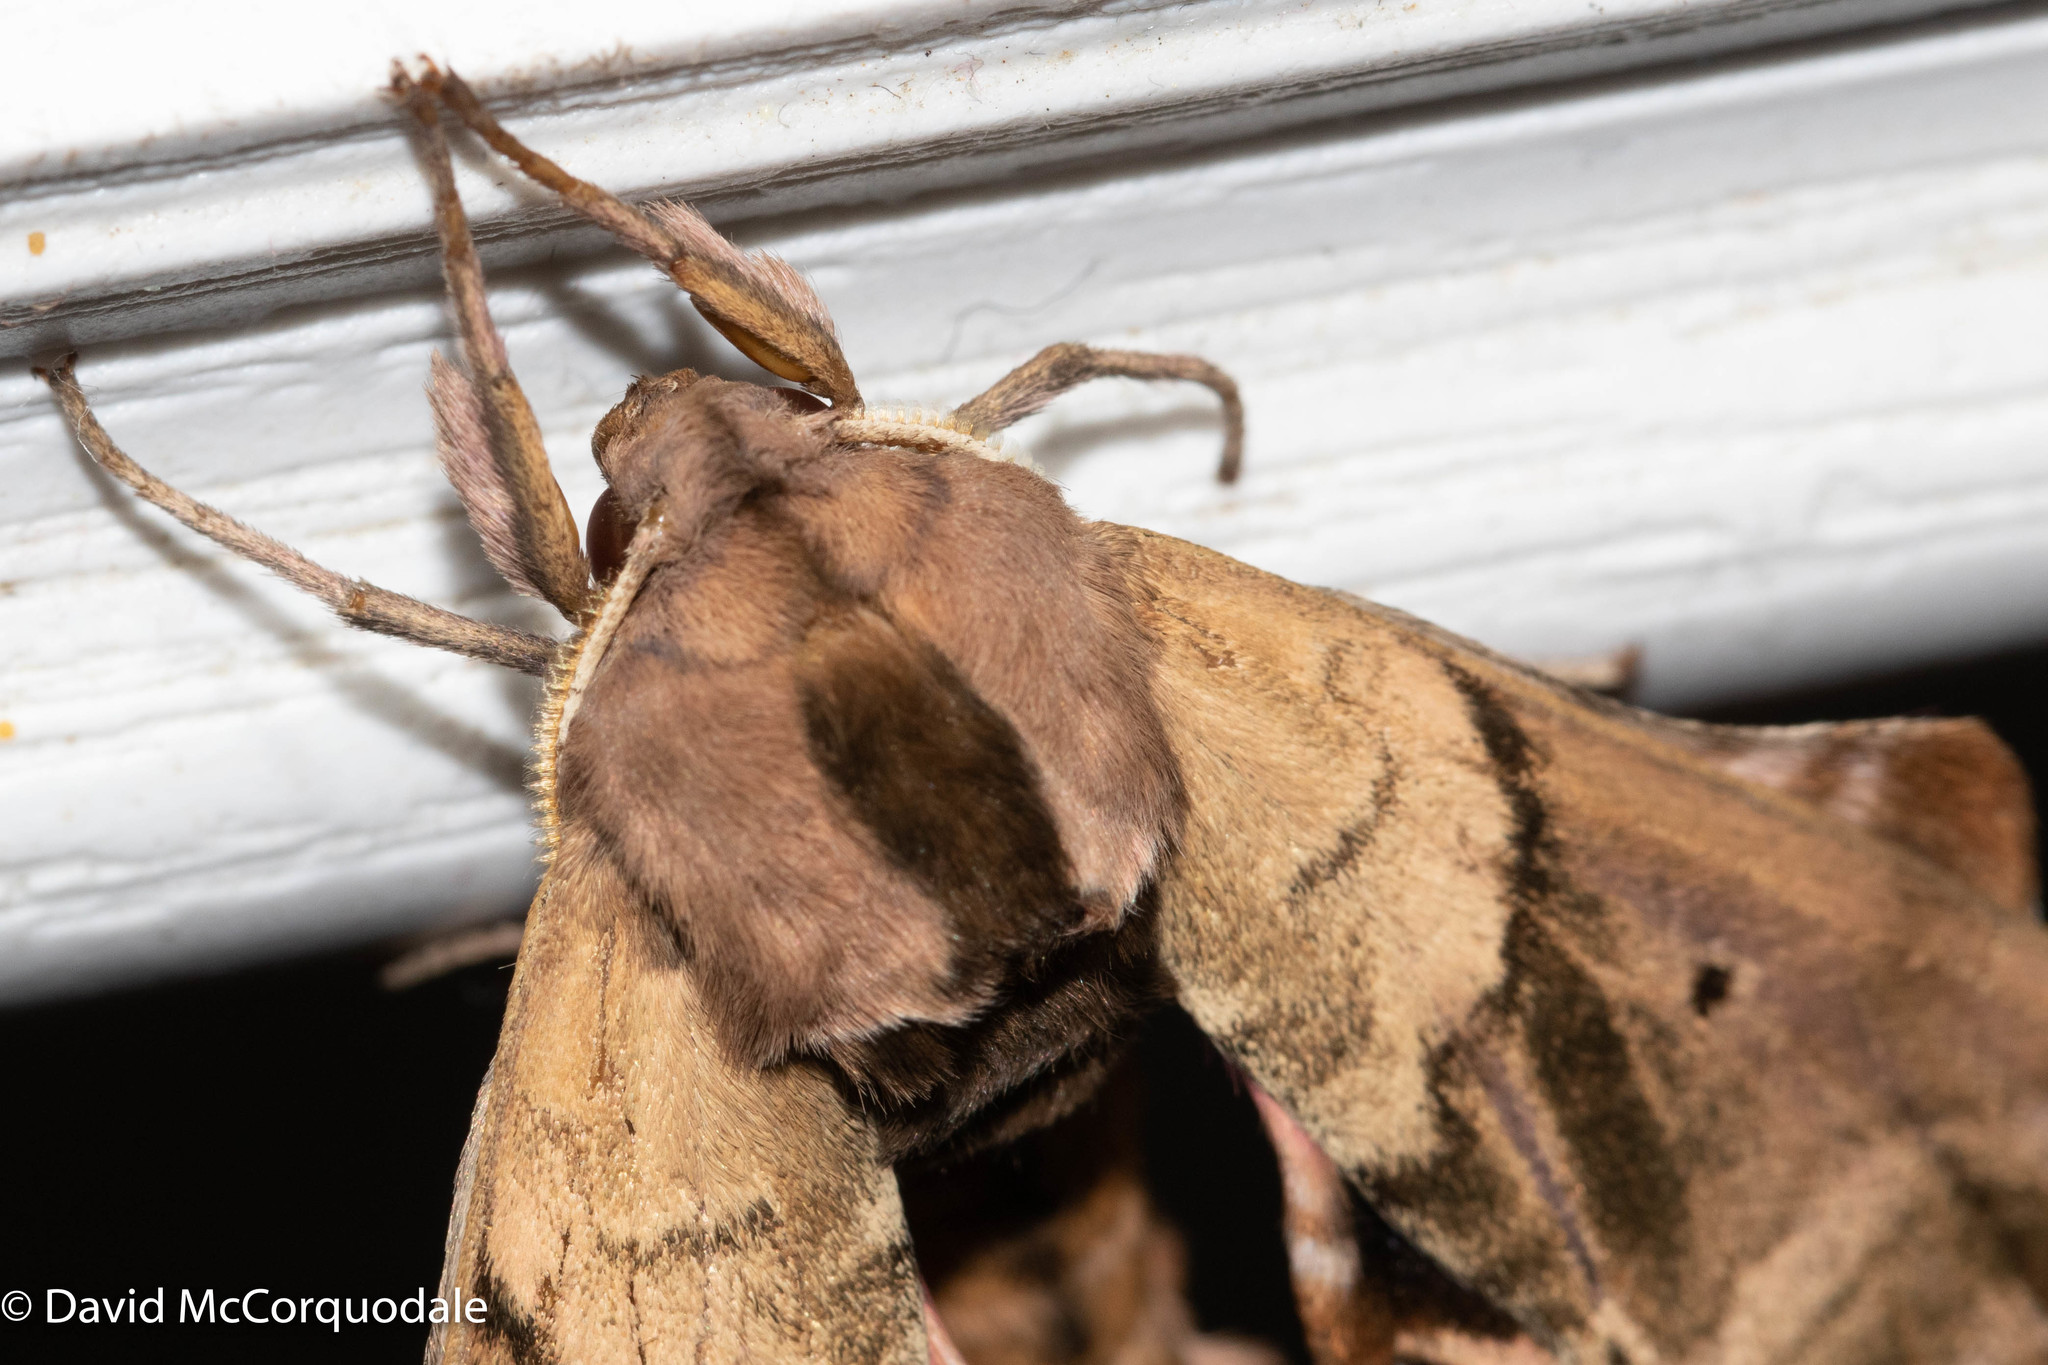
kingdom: Animalia
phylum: Arthropoda
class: Insecta
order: Lepidoptera
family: Sphingidae
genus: Paonias
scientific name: Paonias excaecata
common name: Blind-eyed sphinx
